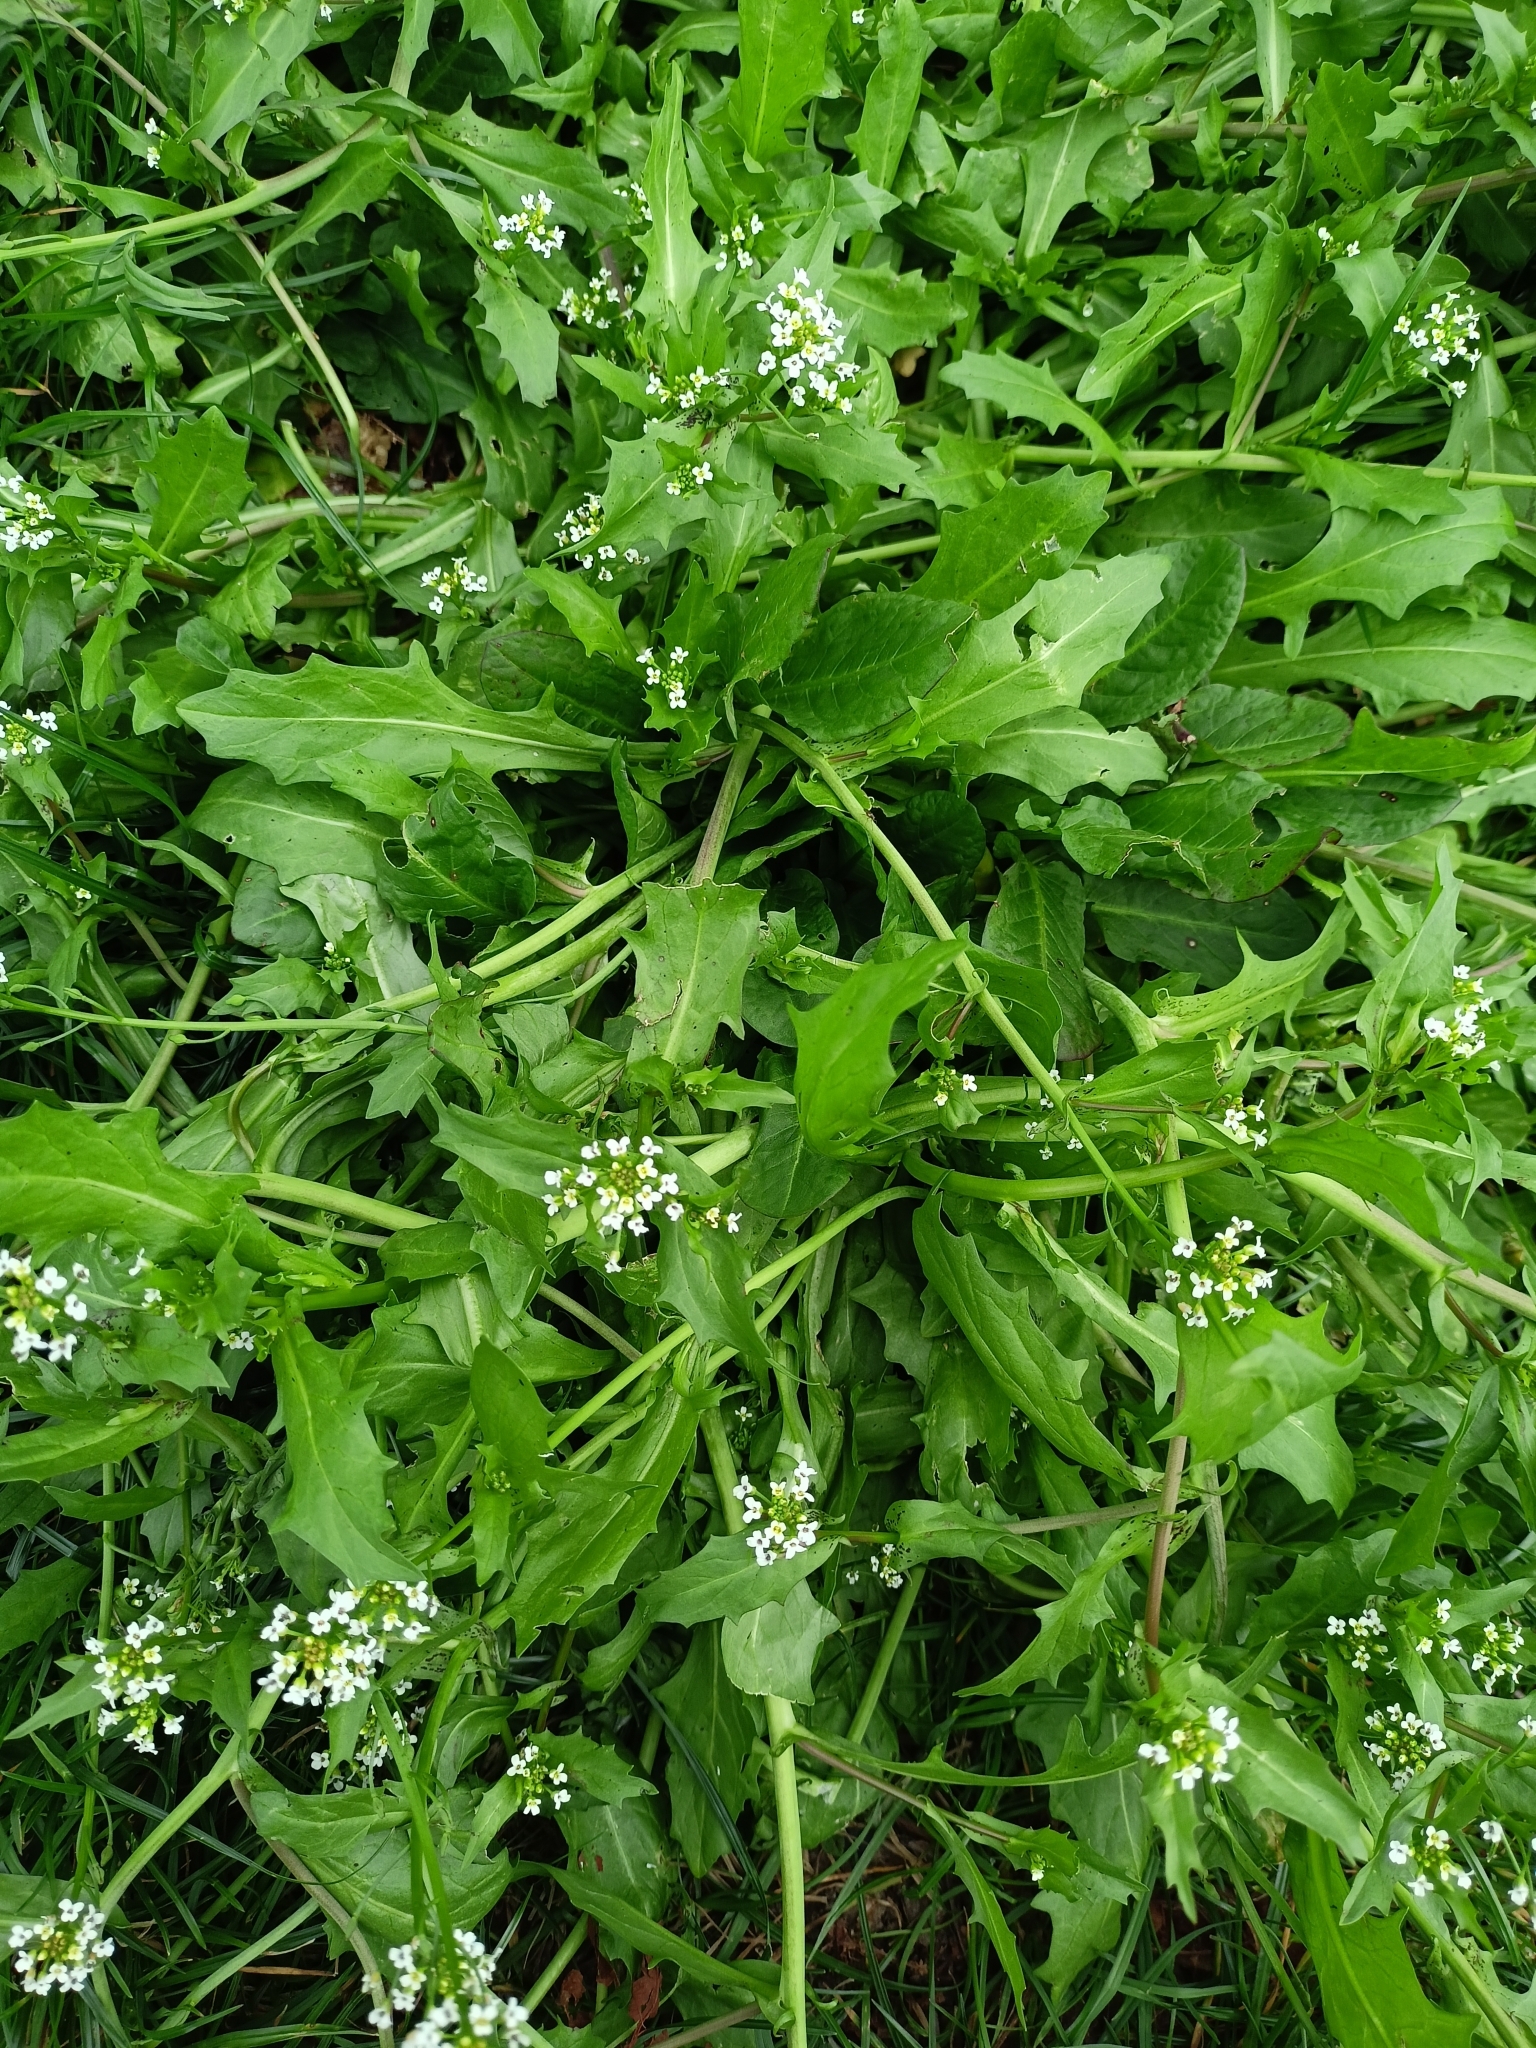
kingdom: Plantae
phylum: Tracheophyta
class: Magnoliopsida
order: Brassicales
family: Brassicaceae
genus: Calepina
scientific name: Calepina irregularis
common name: White ballmustard
